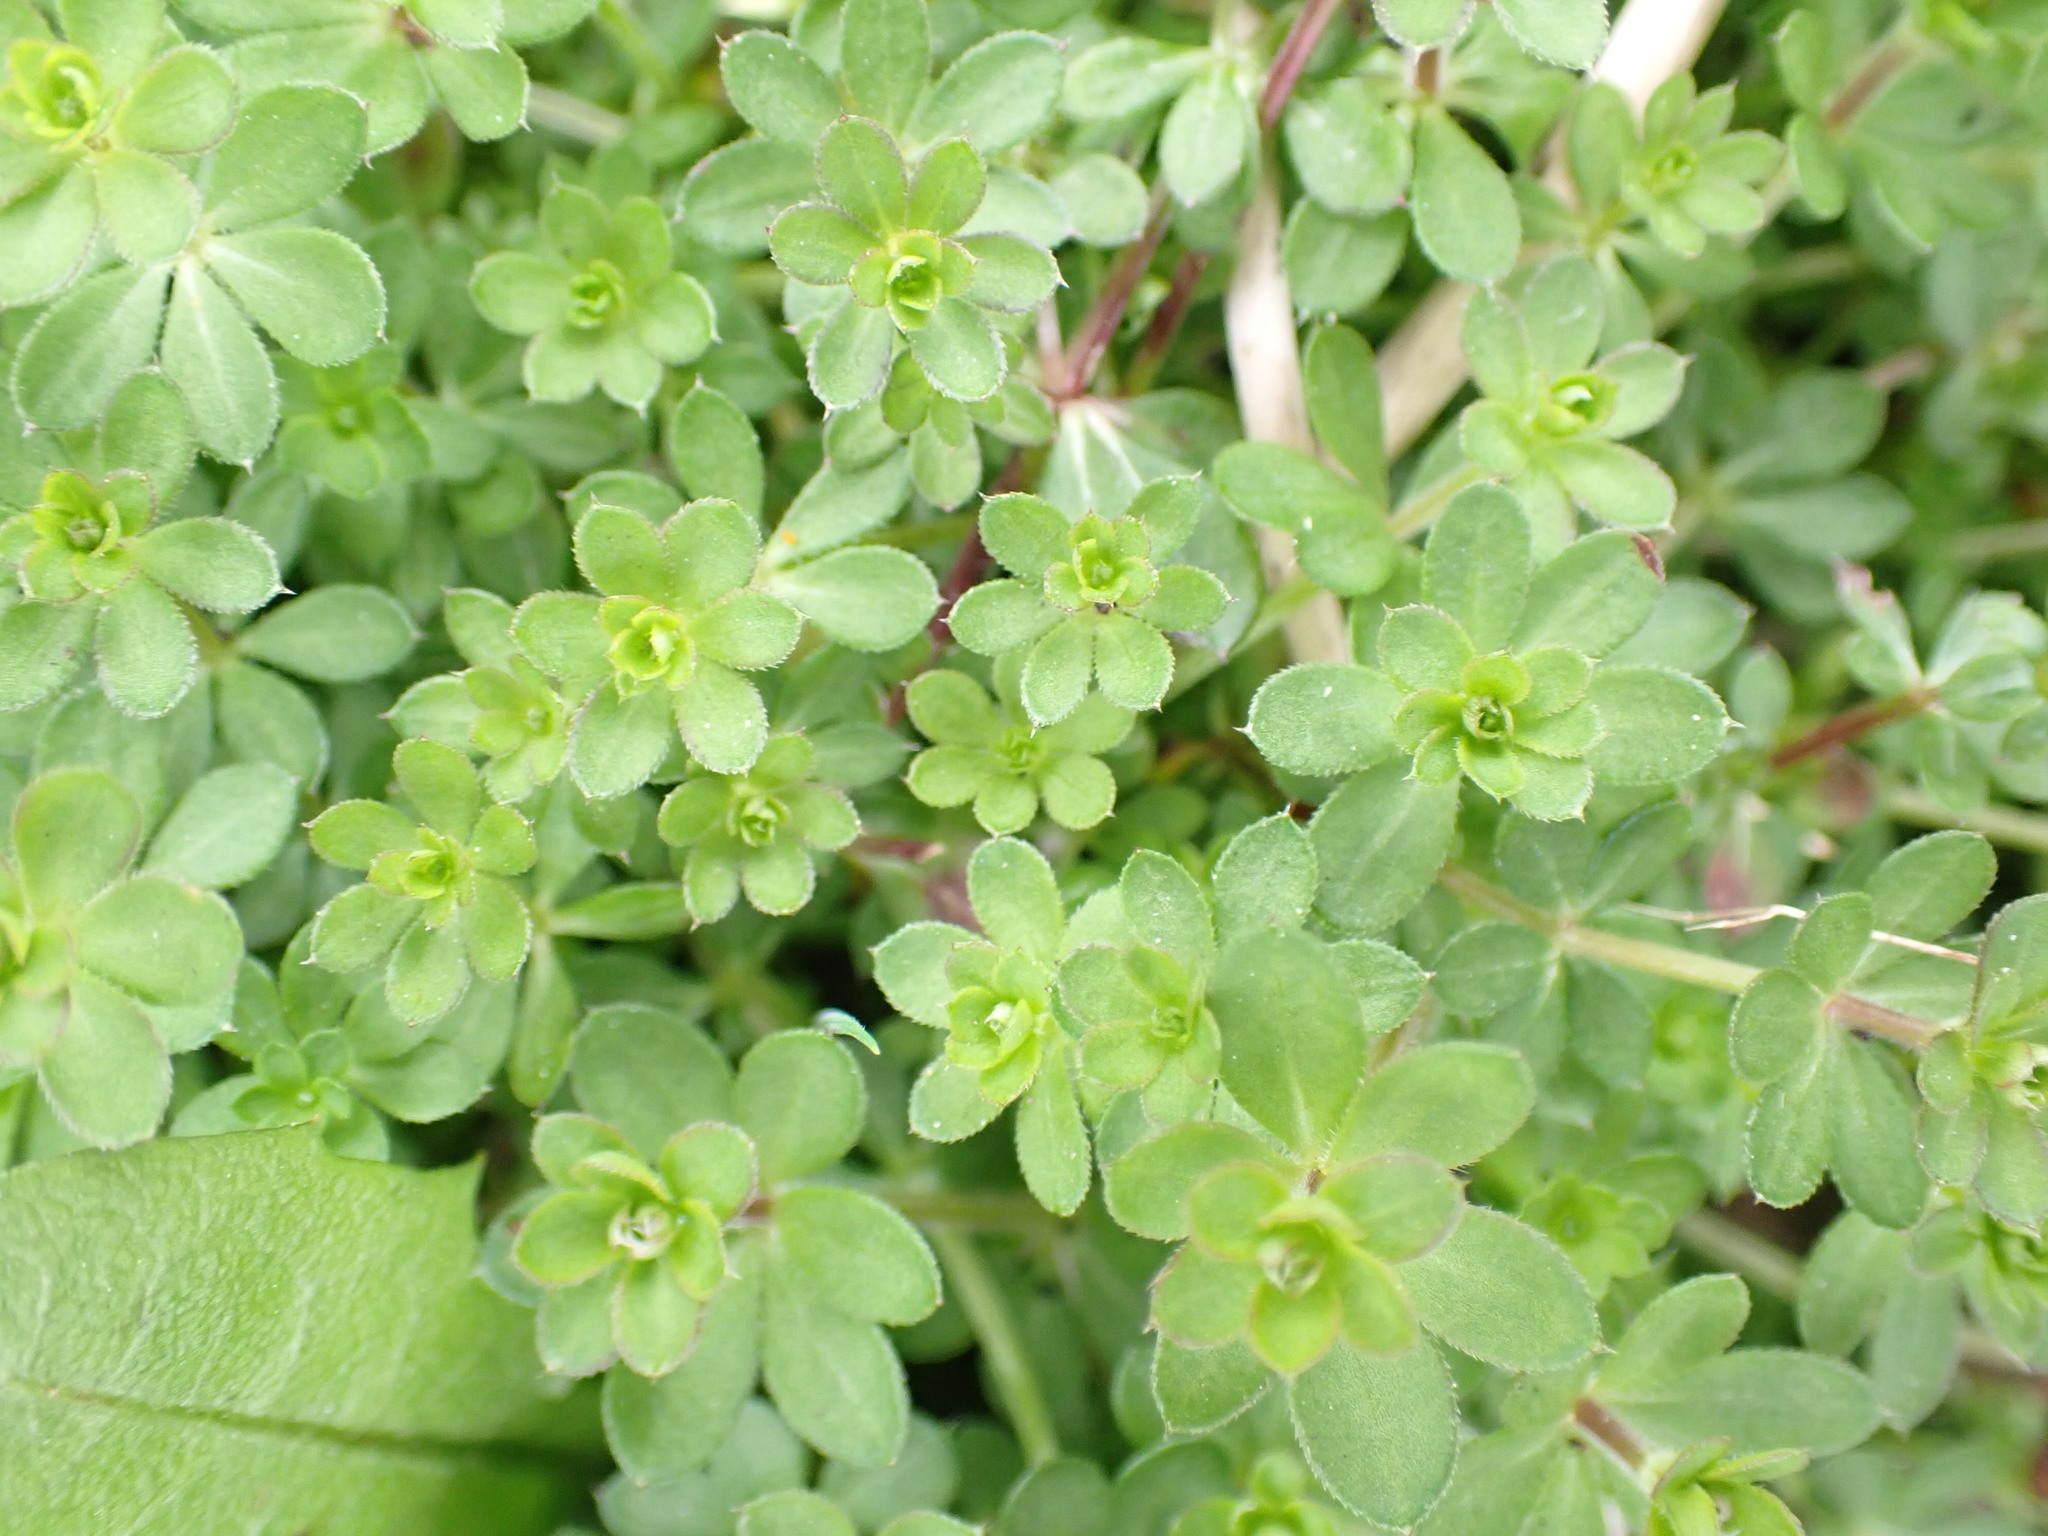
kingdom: Plantae
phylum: Tracheophyta
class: Magnoliopsida
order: Gentianales
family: Rubiaceae
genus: Galium
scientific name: Galium mollugo
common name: Hedge bedstraw
